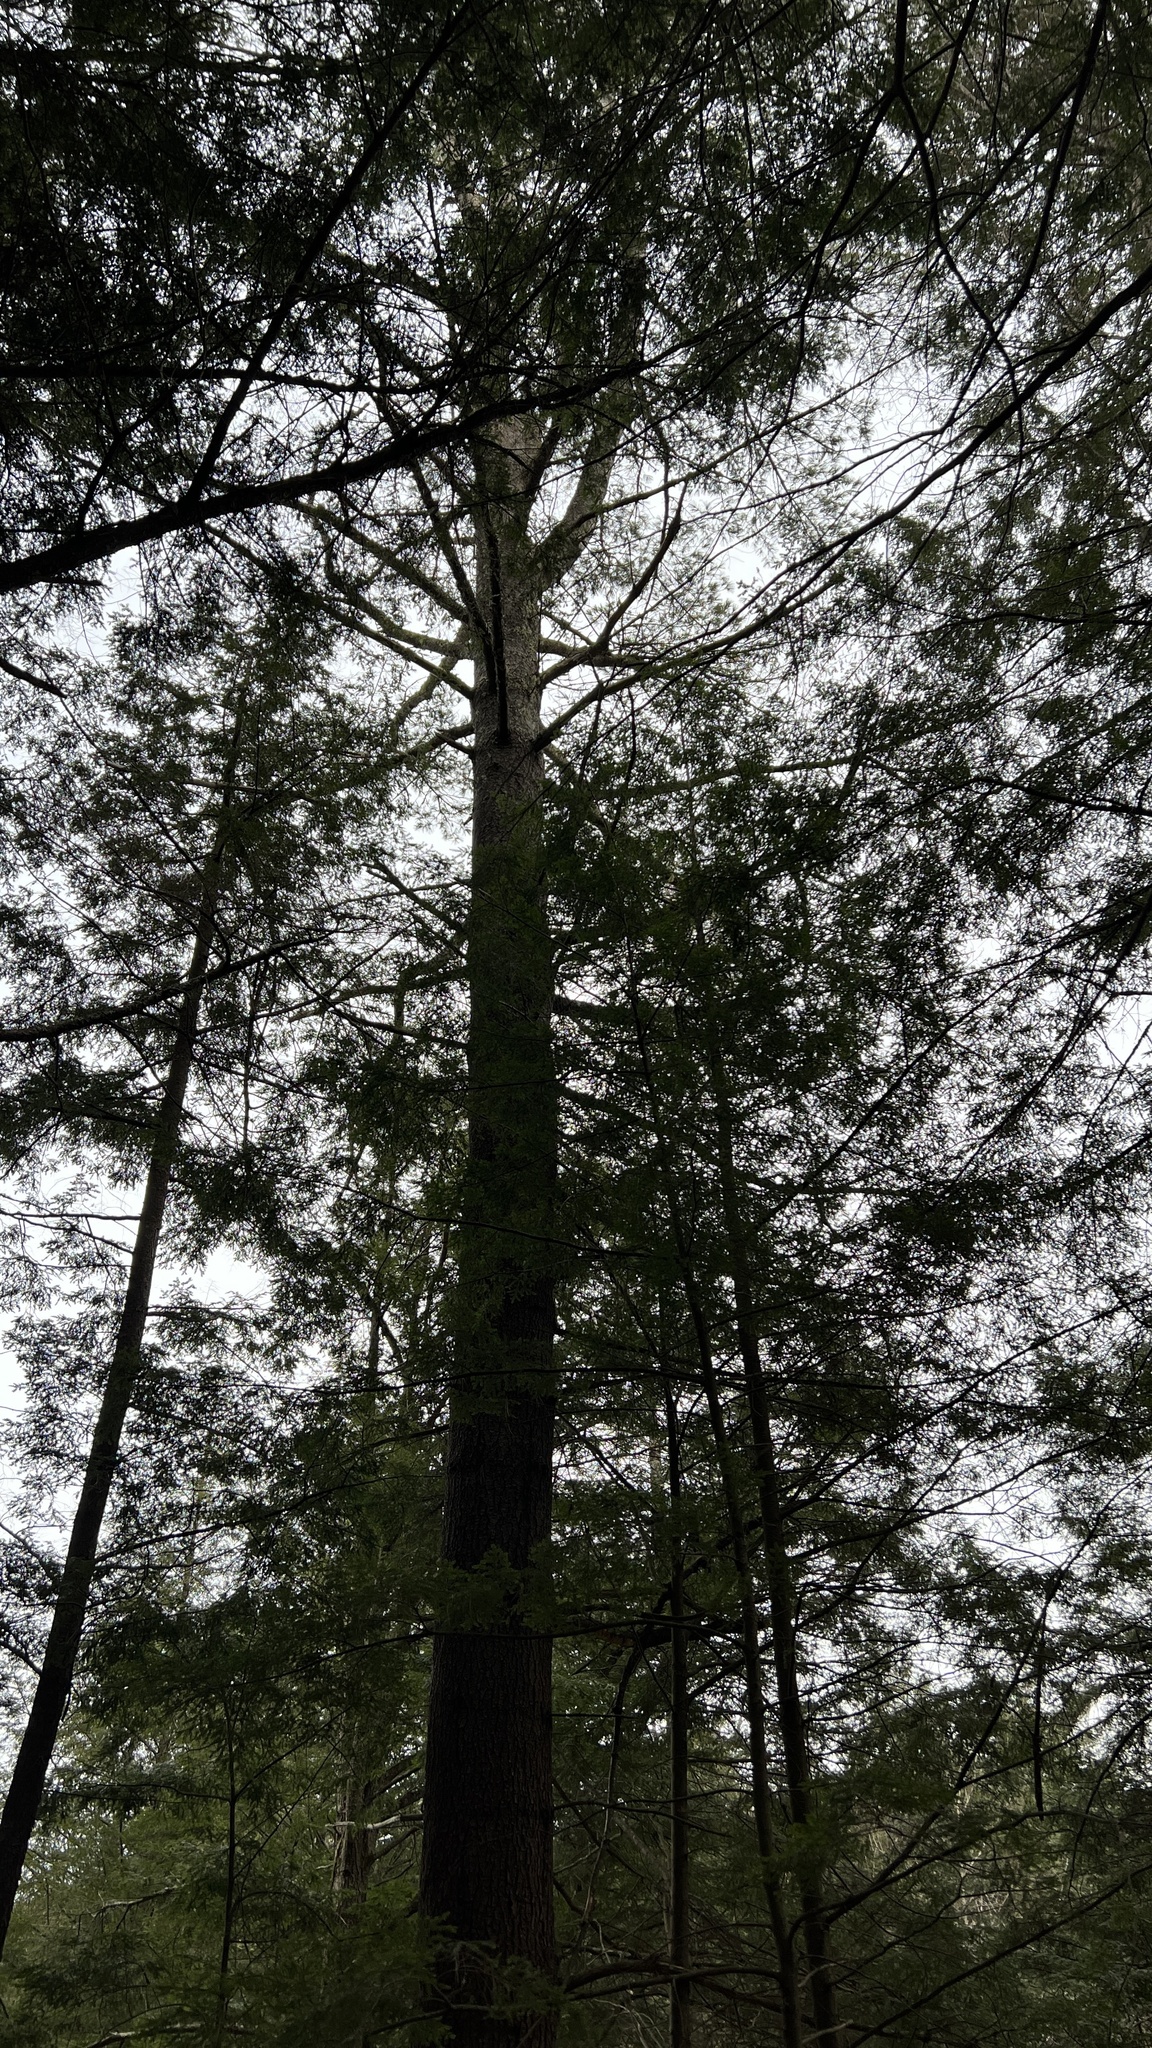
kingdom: Plantae
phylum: Tracheophyta
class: Pinopsida
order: Pinales
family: Pinaceae
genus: Pinus
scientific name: Pinus strobus
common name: Weymouth pine
